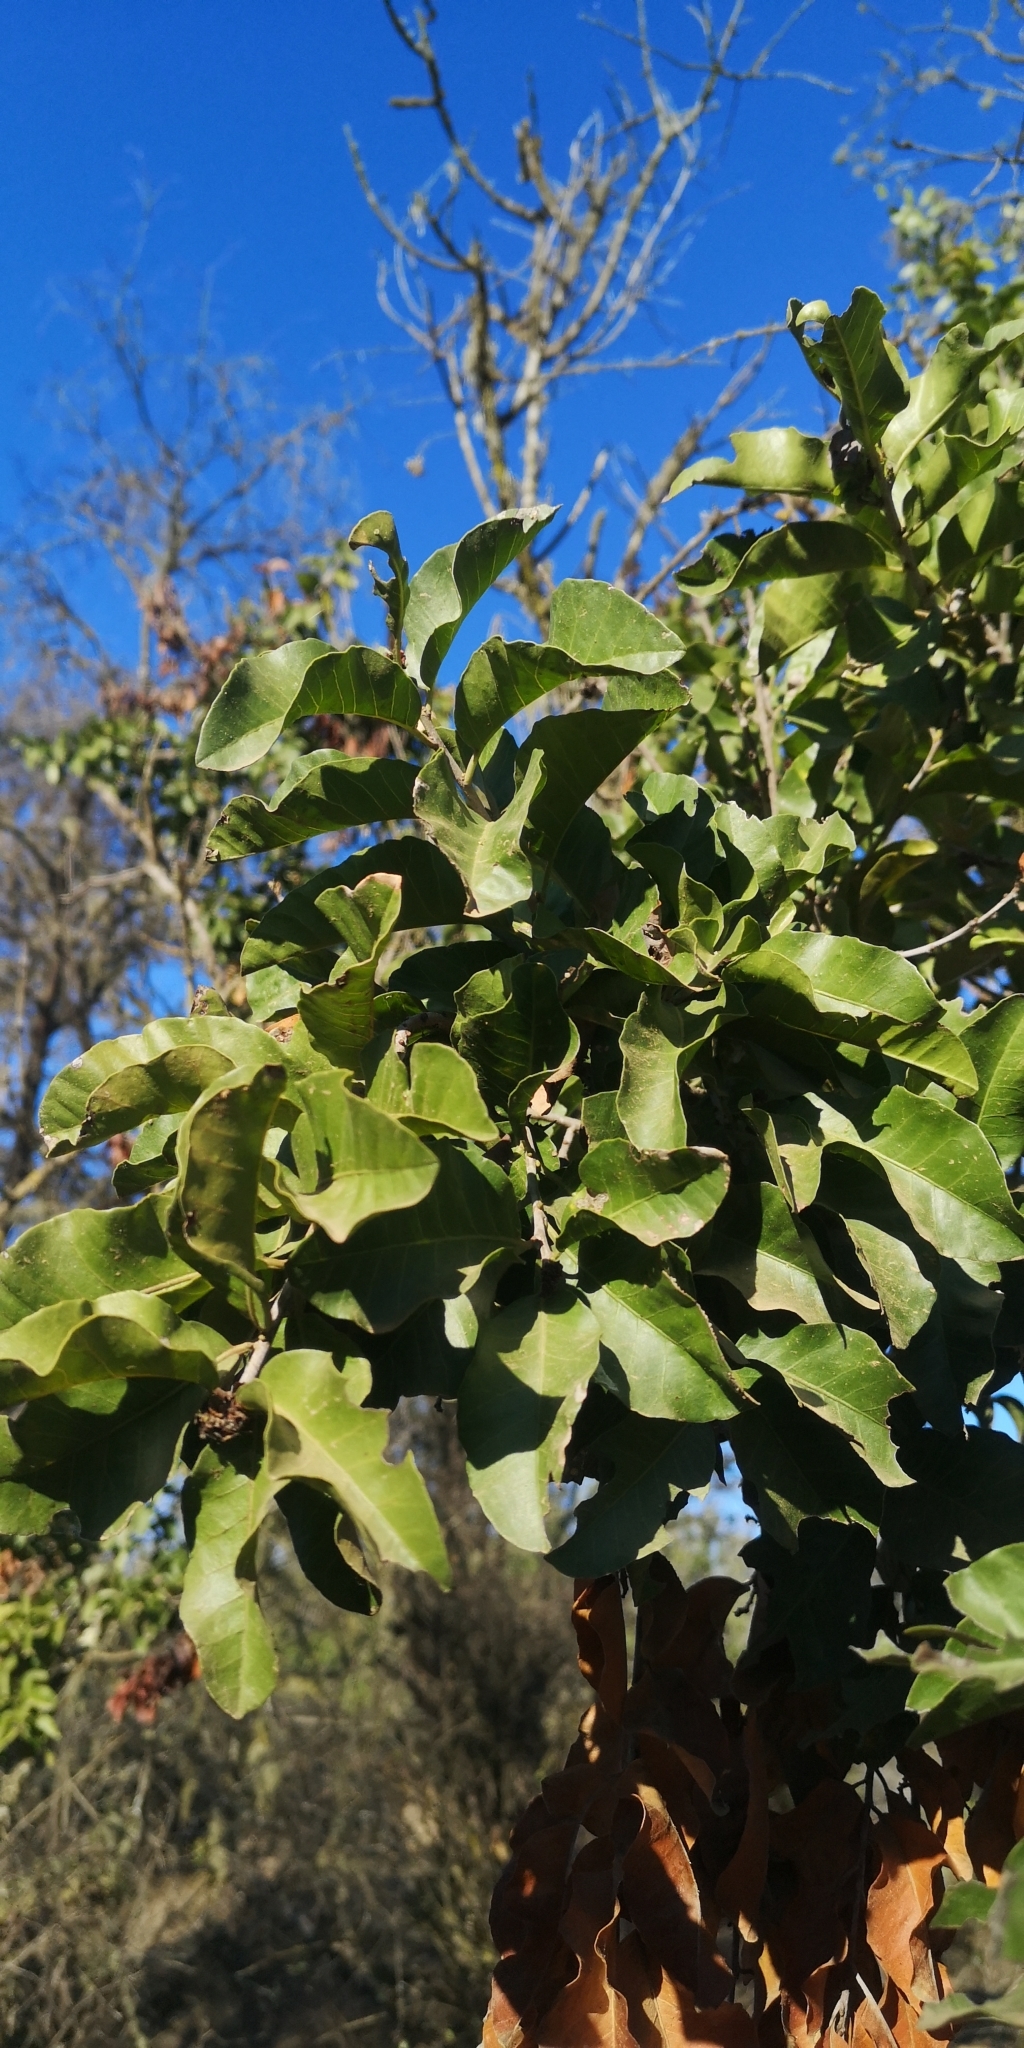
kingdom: Plantae
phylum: Tracheophyta
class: Magnoliopsida
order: Sapindales
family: Anacardiaceae
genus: Schinus
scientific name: Schinus latifolia
